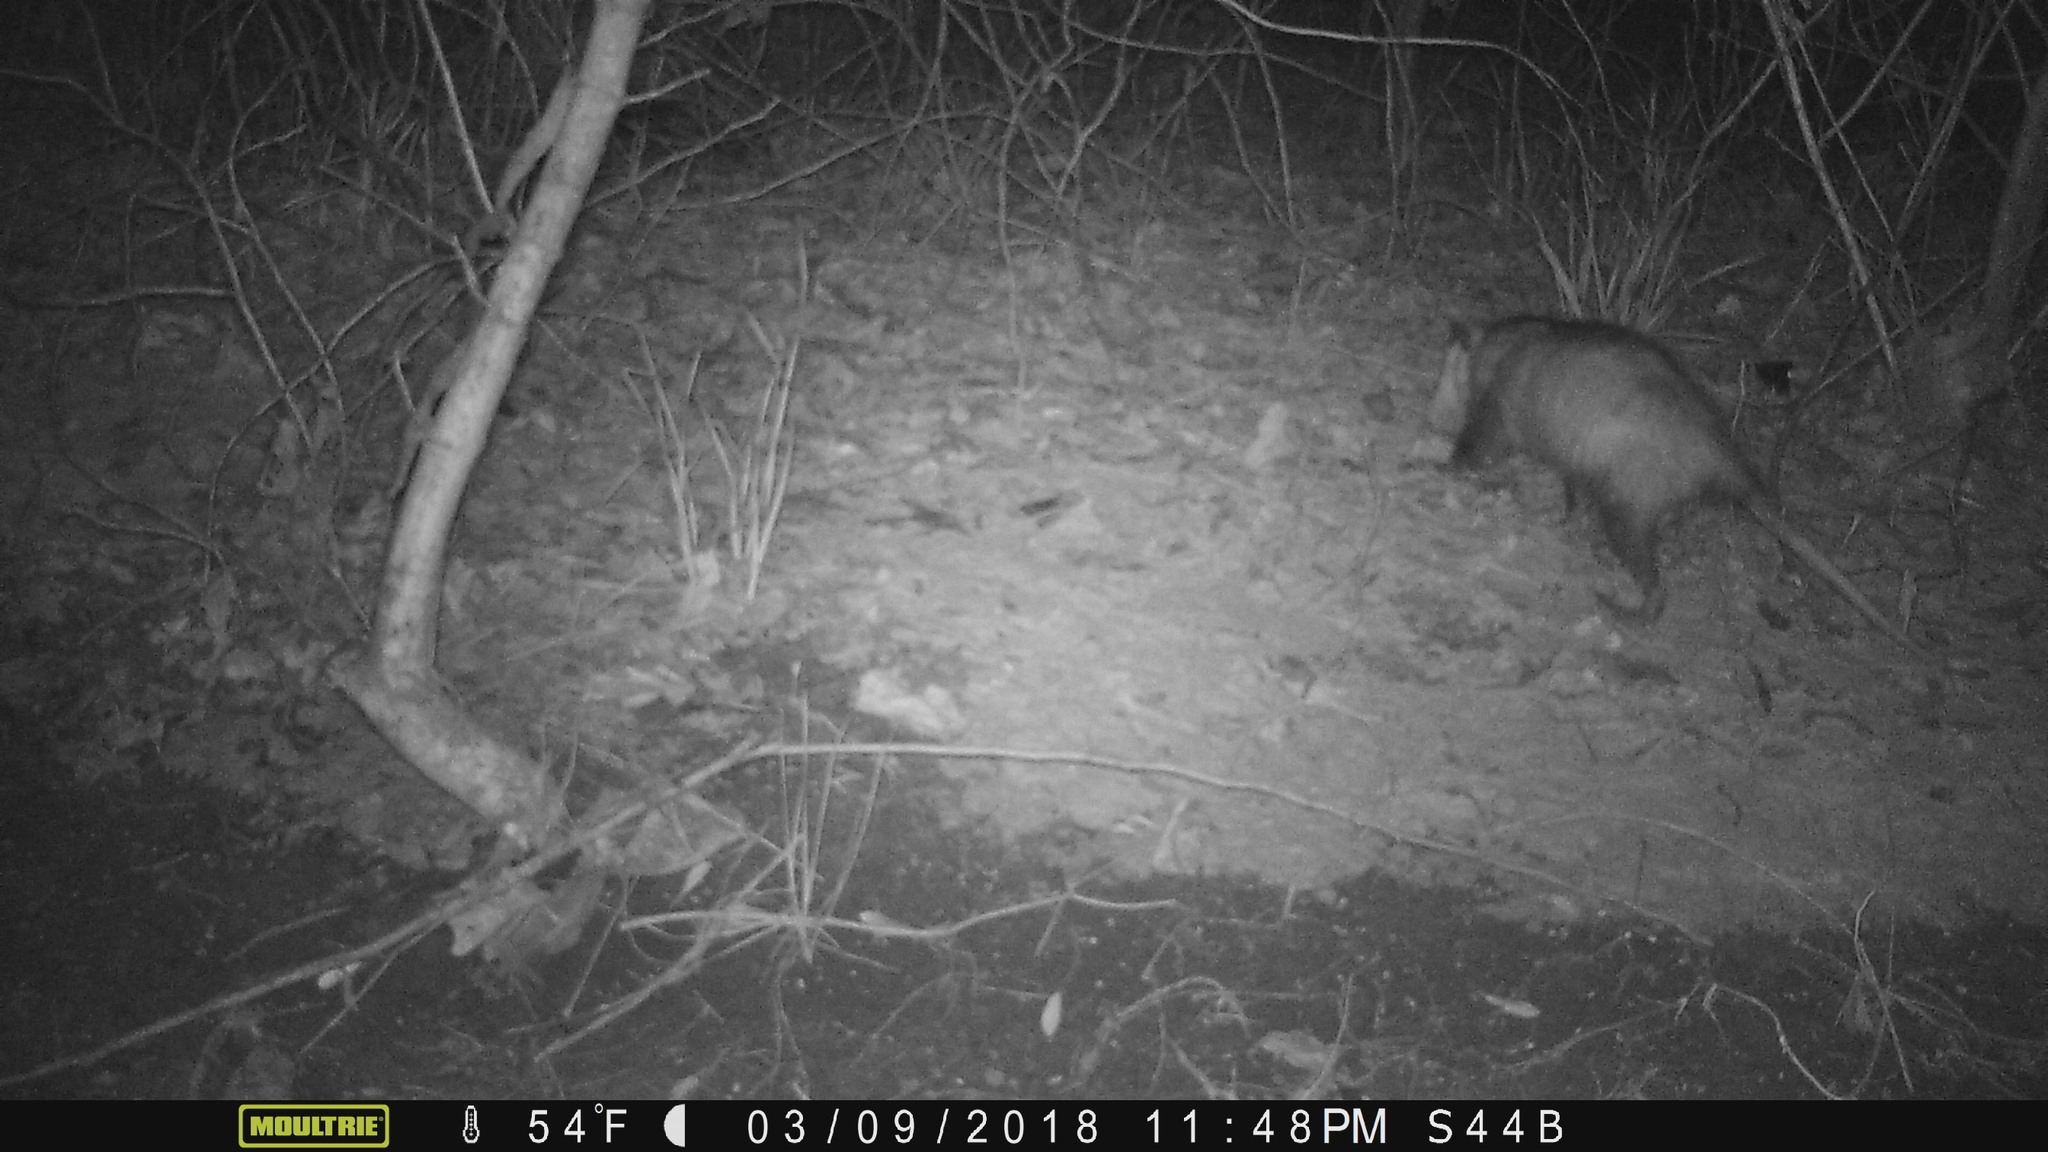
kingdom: Animalia
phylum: Chordata
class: Mammalia
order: Didelphimorphia
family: Didelphidae
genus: Didelphis
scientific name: Didelphis virginiana
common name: Virginia opossum
